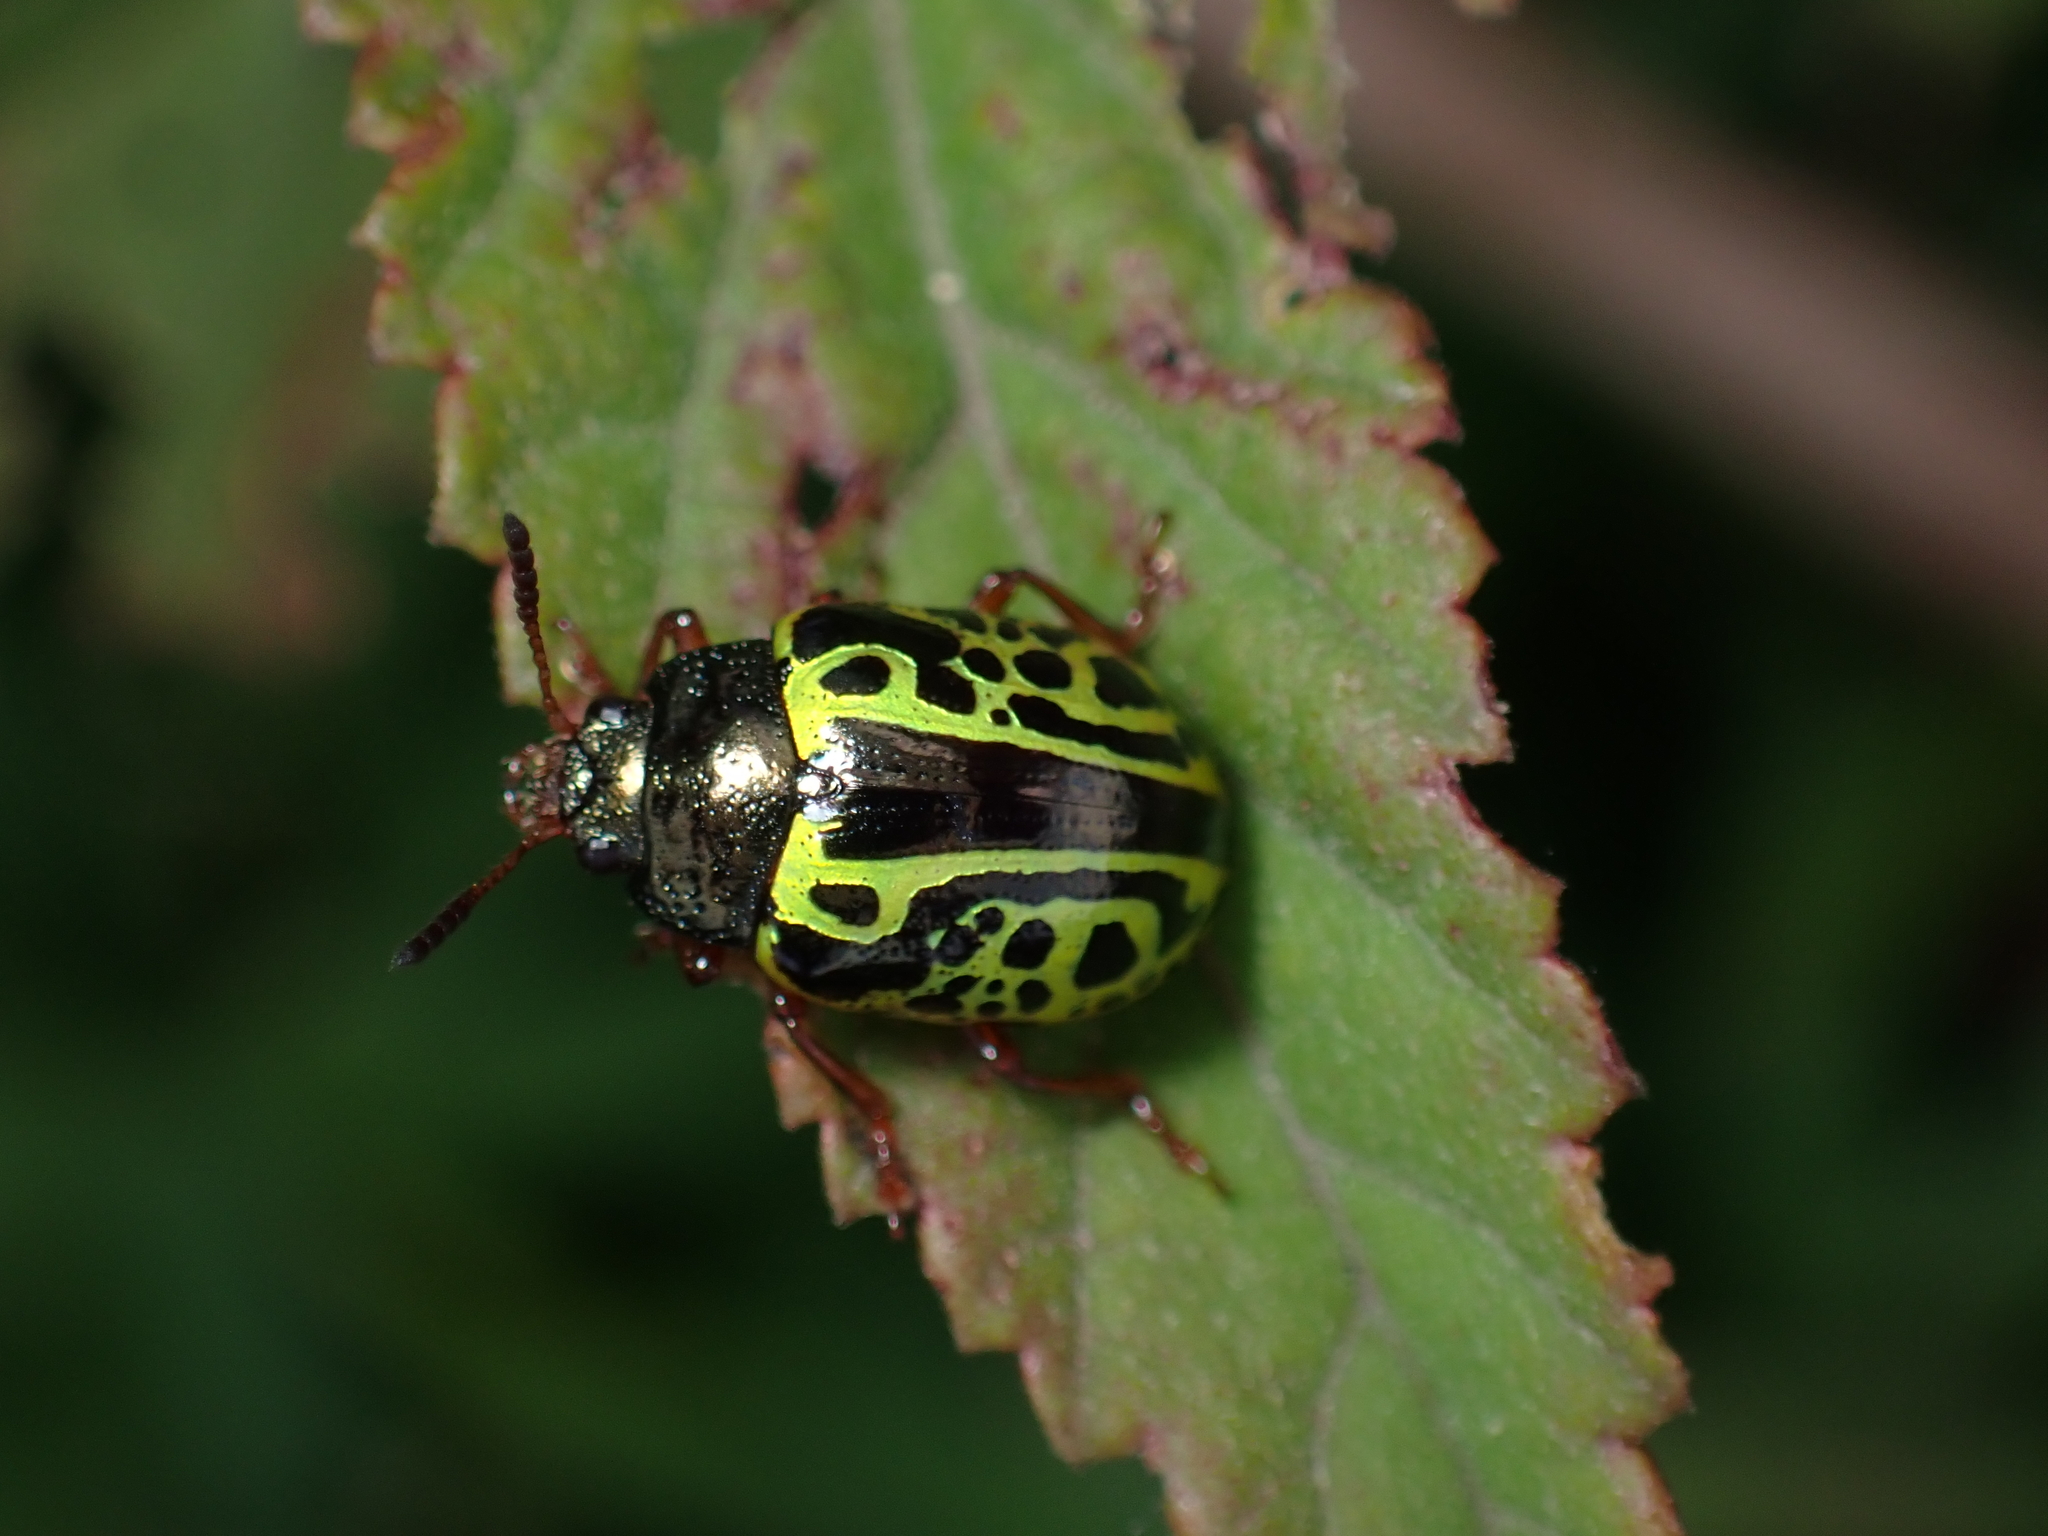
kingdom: Animalia
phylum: Arthropoda
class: Insecta
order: Coleoptera
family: Chrysomelidae
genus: Calligrapha
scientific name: Calligrapha pantherina
